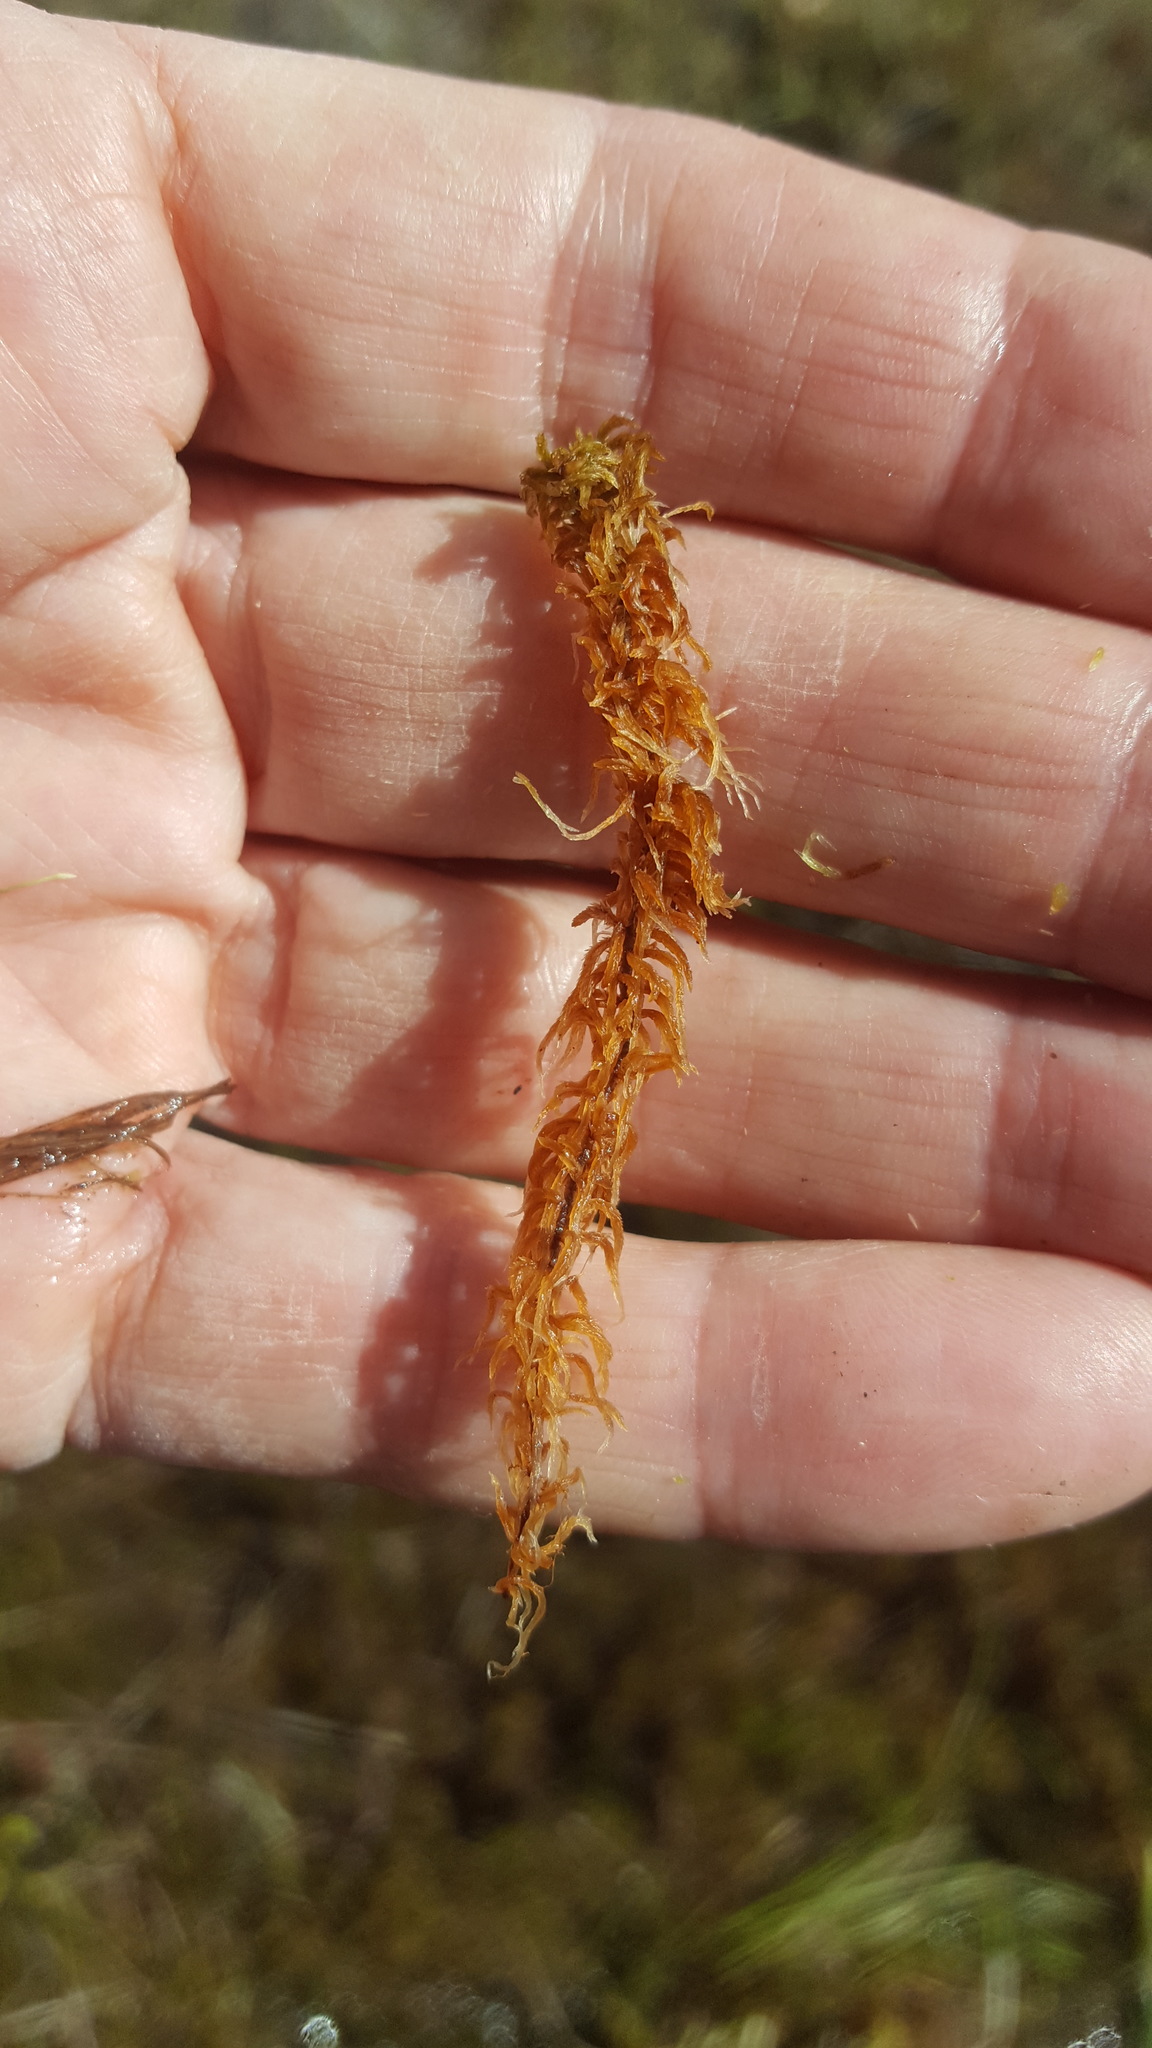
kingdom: Plantae
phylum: Bryophyta
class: Sphagnopsida
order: Sphagnales
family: Sphagnaceae
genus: Sphagnum
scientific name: Sphagnum fuscum
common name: Brown peat moss
